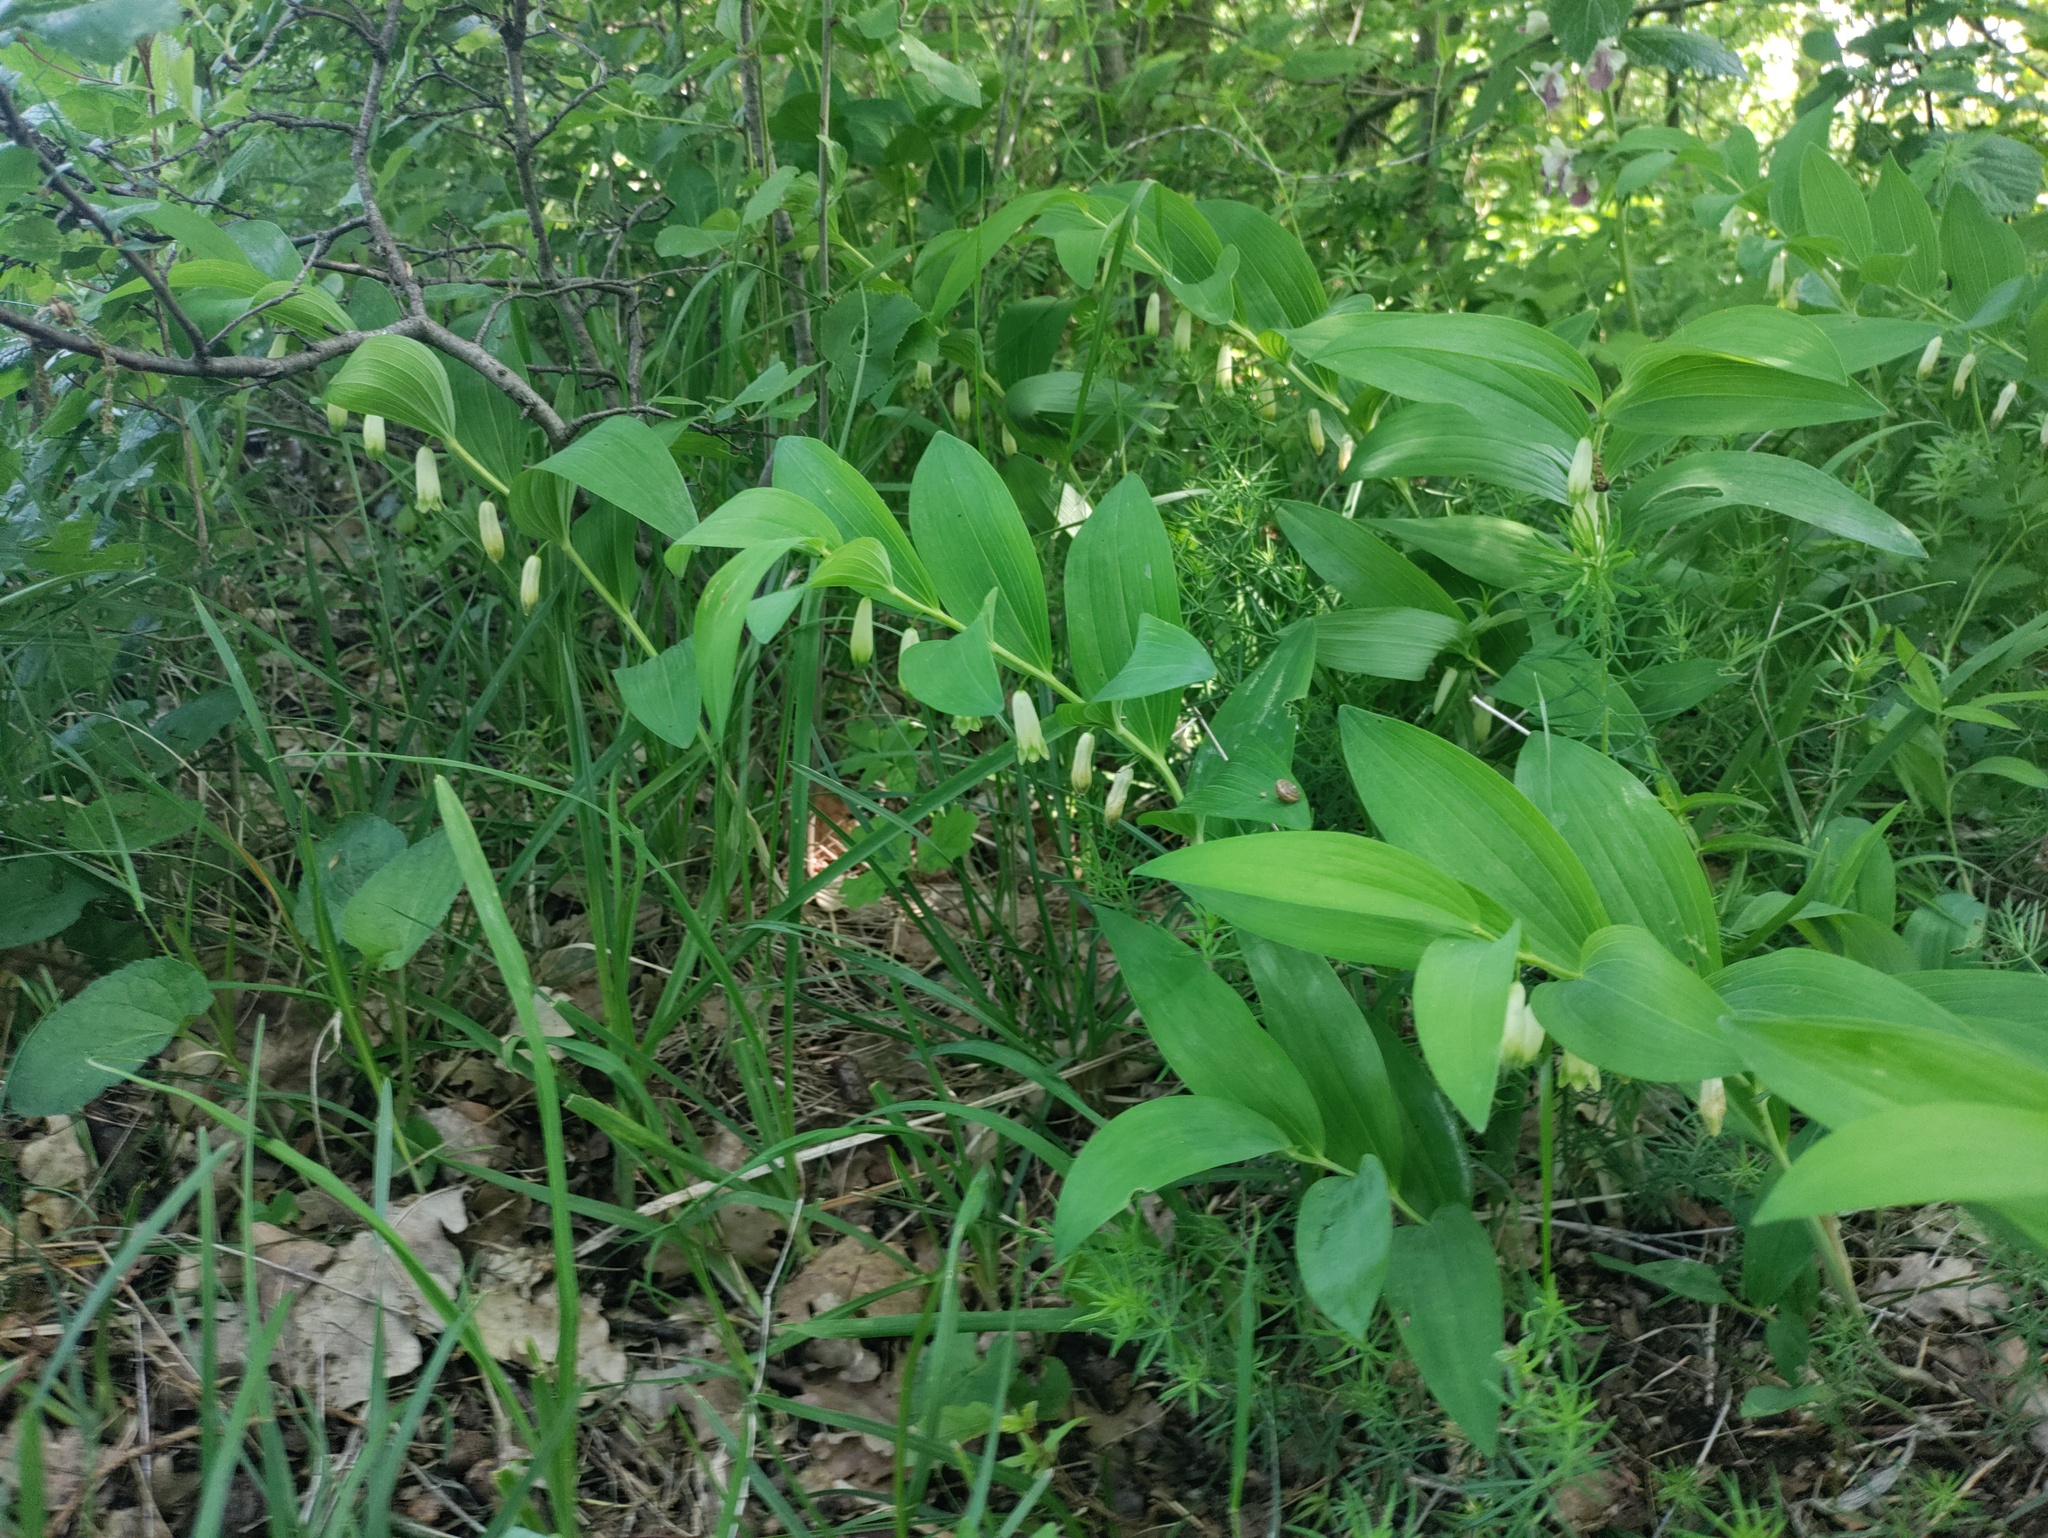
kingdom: Plantae
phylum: Tracheophyta
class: Liliopsida
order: Asparagales
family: Asparagaceae
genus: Polygonatum
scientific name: Polygonatum odoratum
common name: Angular solomon's-seal
